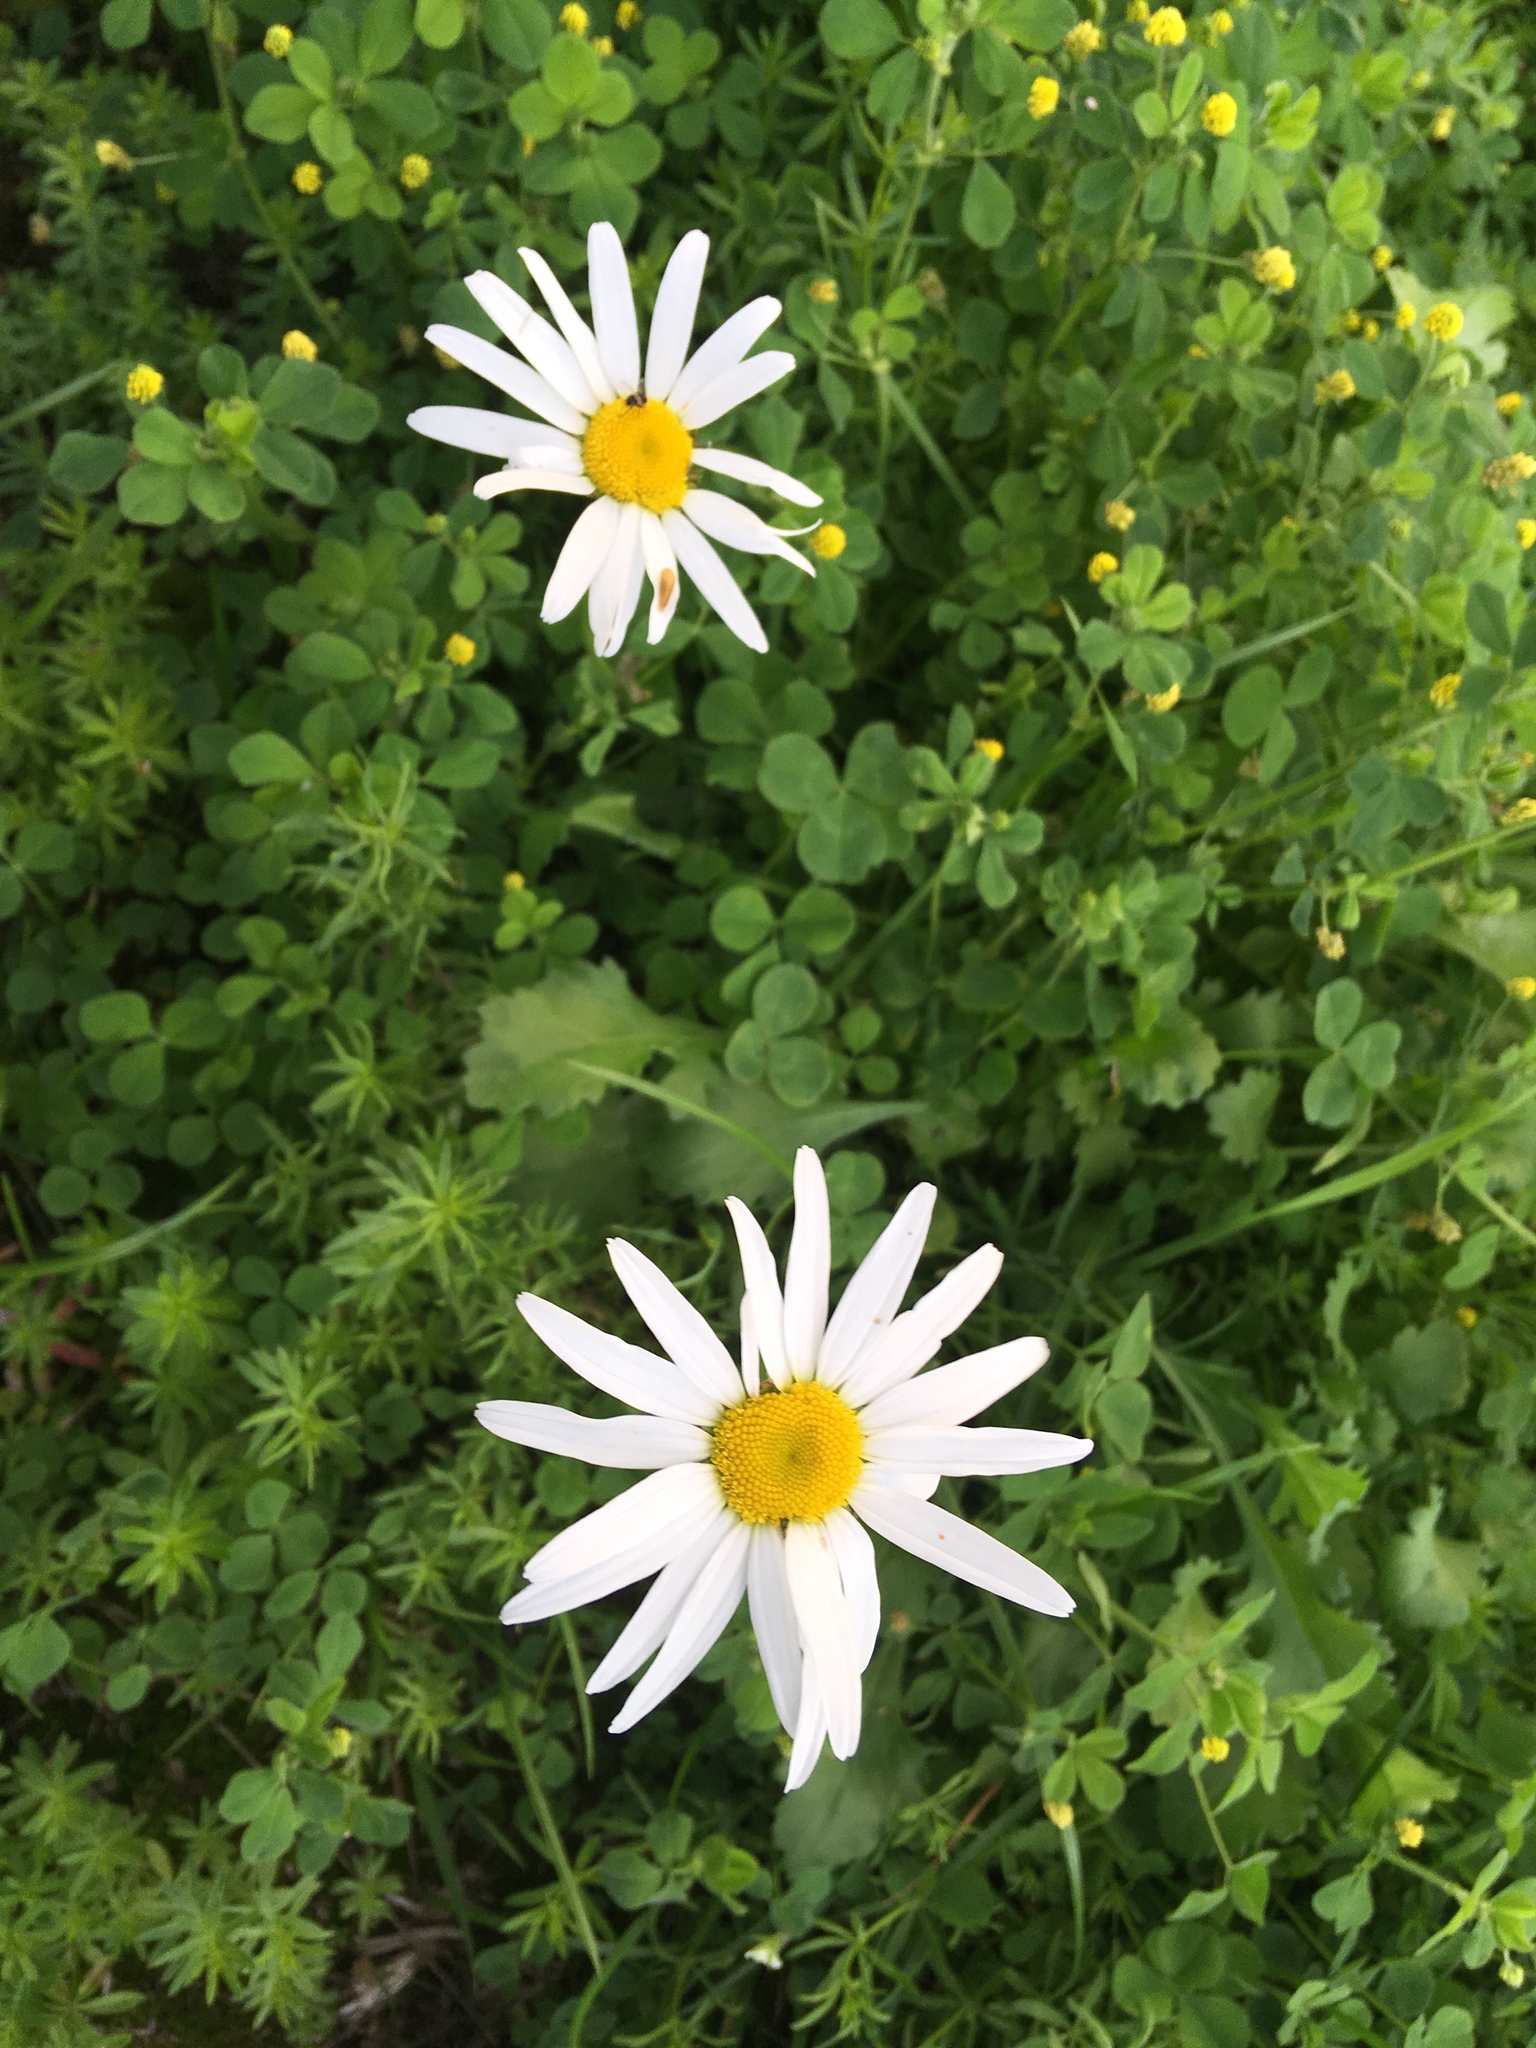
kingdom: Plantae
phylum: Tracheophyta
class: Magnoliopsida
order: Asterales
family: Asteraceae
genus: Leucanthemum
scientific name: Leucanthemum vulgare
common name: Oxeye daisy
